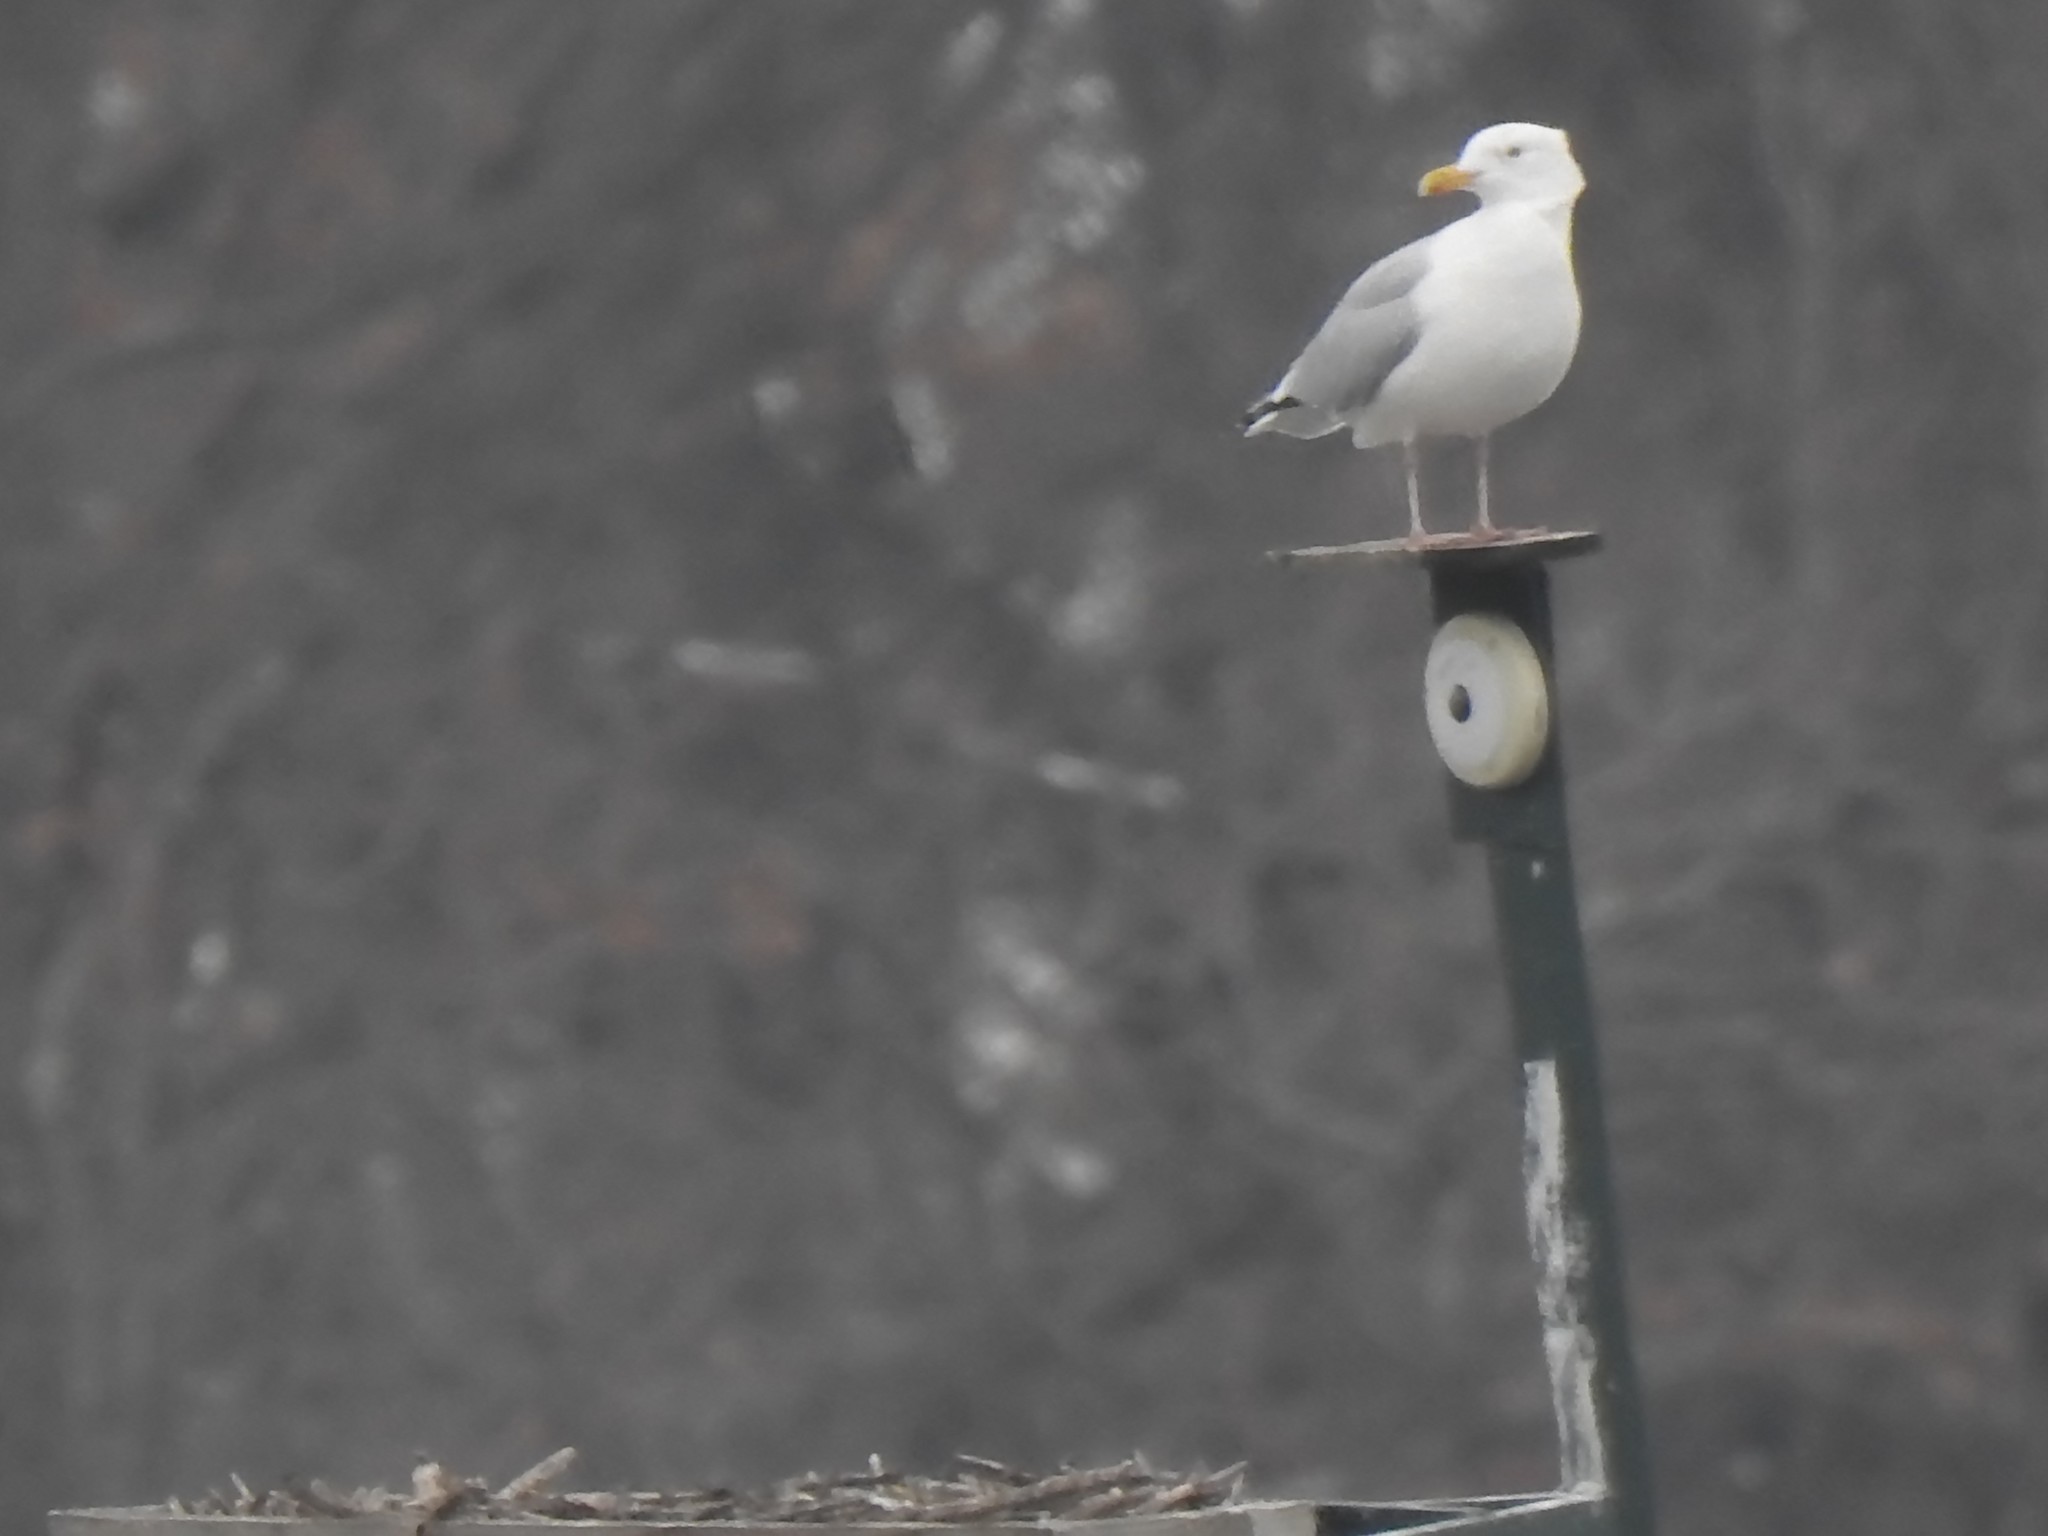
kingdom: Animalia
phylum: Chordata
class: Aves
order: Charadriiformes
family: Laridae
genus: Larus
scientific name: Larus argentatus
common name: Herring gull
